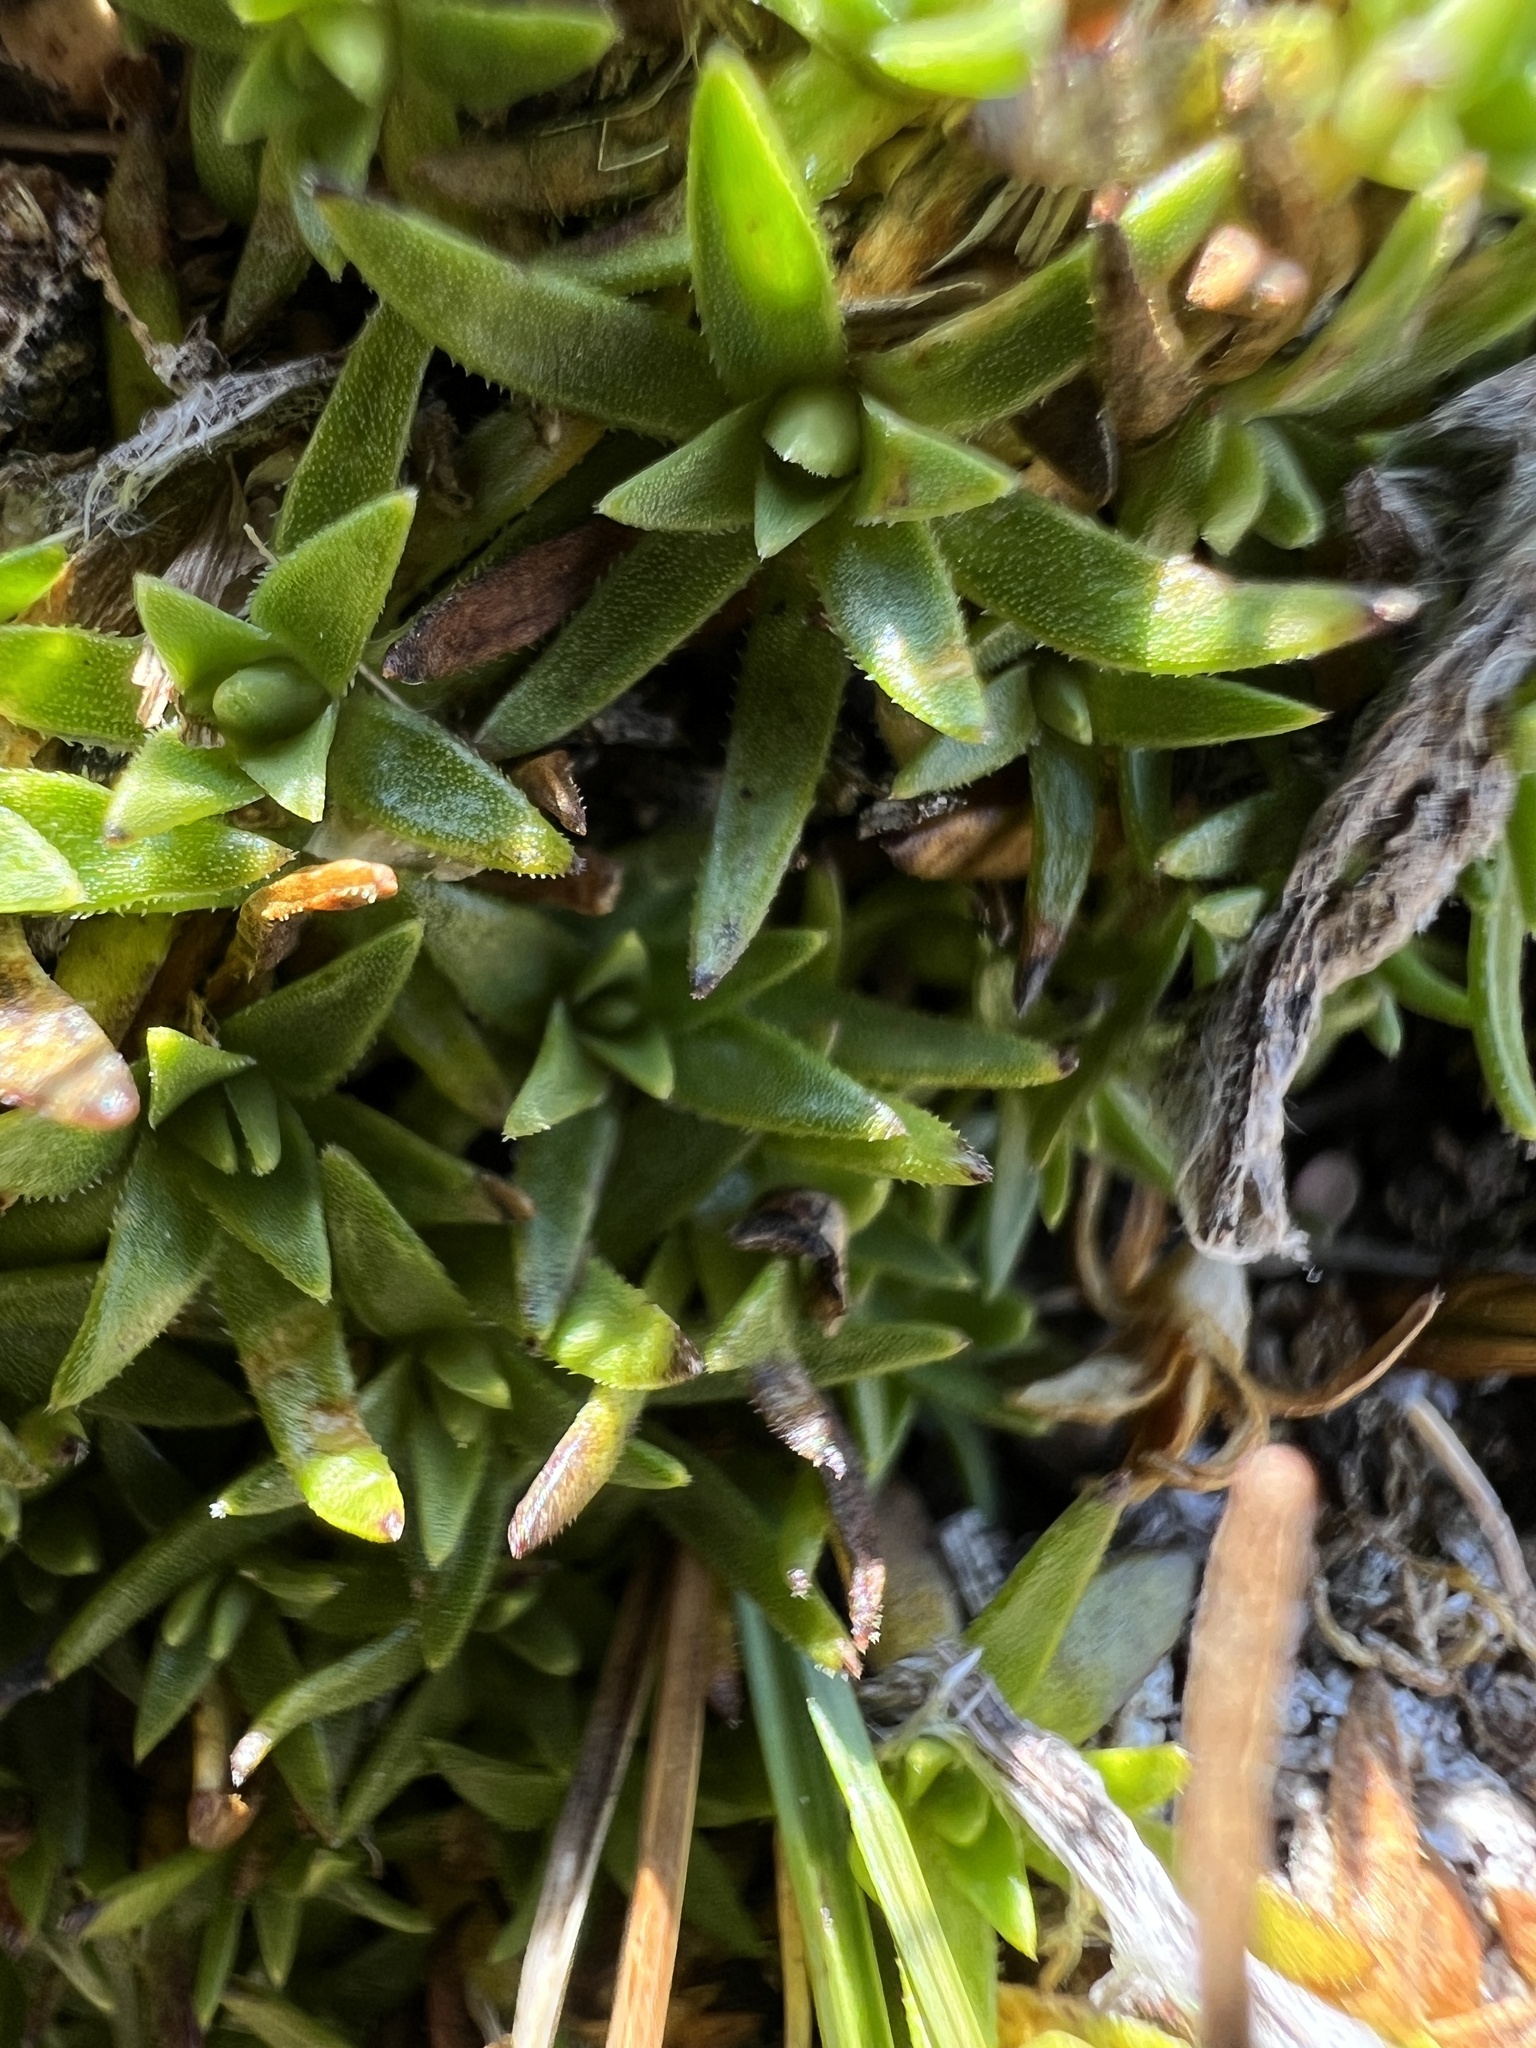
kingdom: Plantae
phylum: Tracheophyta
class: Magnoliopsida
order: Caryophyllales
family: Caryophyllaceae
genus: Silene
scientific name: Silene acaulis
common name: Moss campion
